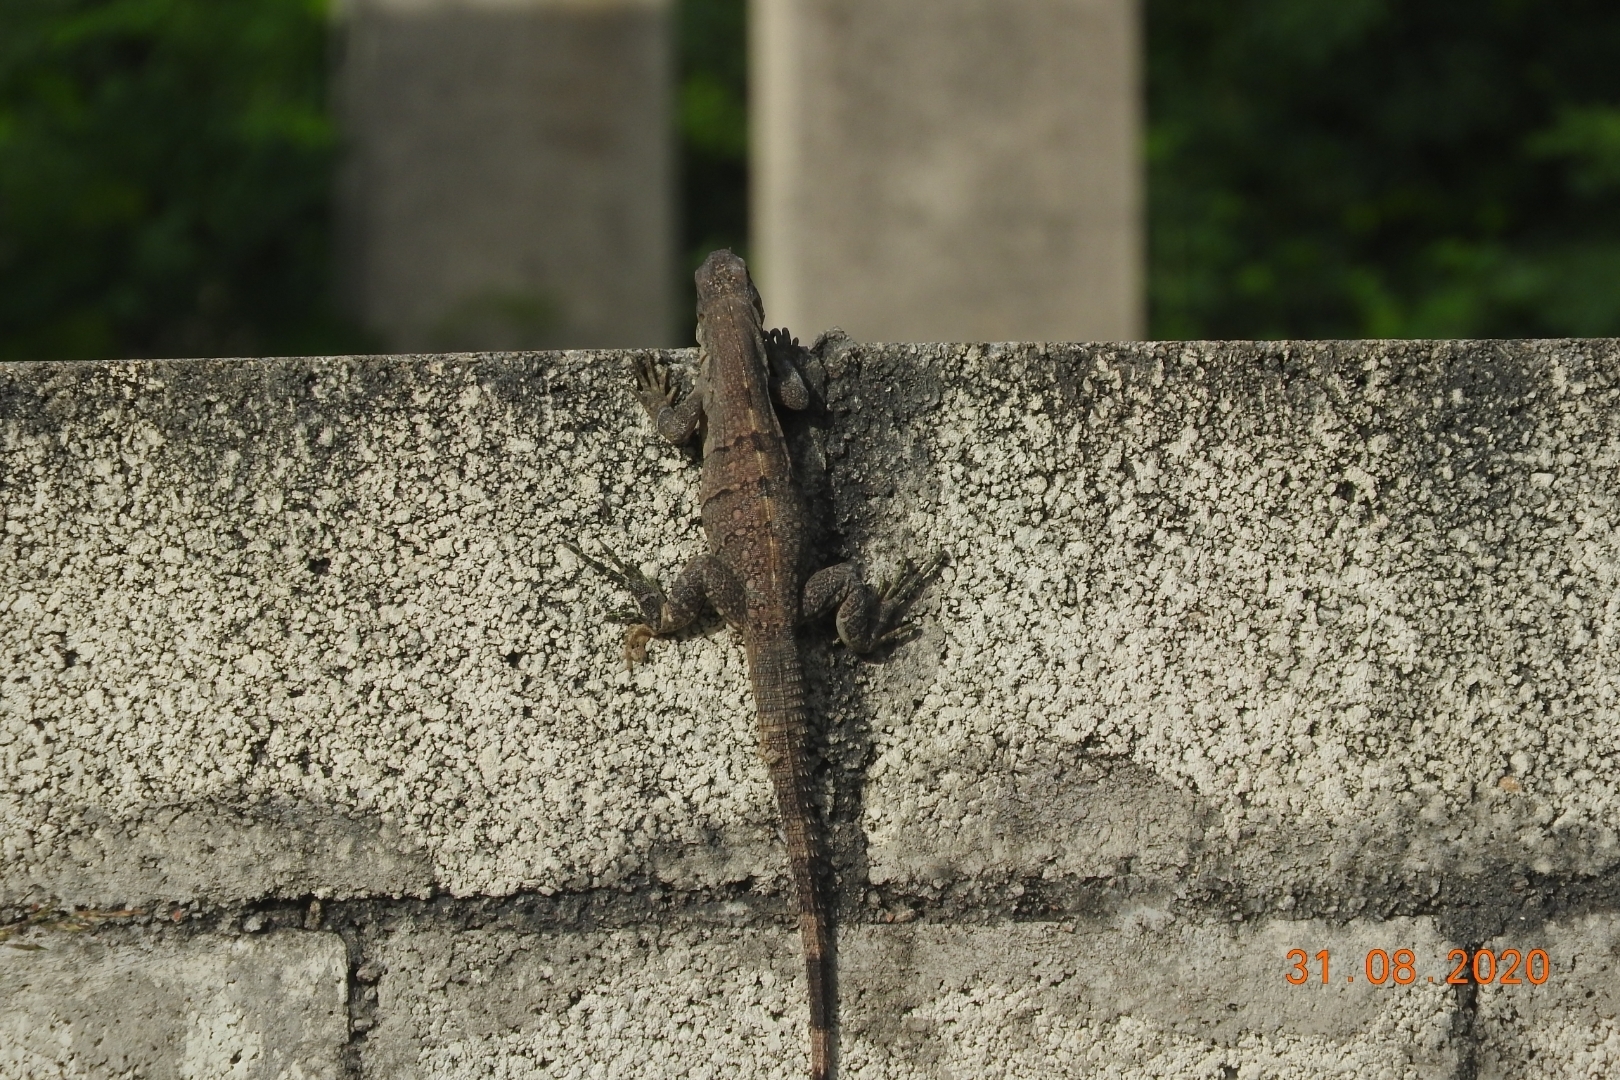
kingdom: Animalia
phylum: Chordata
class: Squamata
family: Iguanidae
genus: Ctenosaura
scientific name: Ctenosaura similis
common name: Black spiny-tailed iguana
